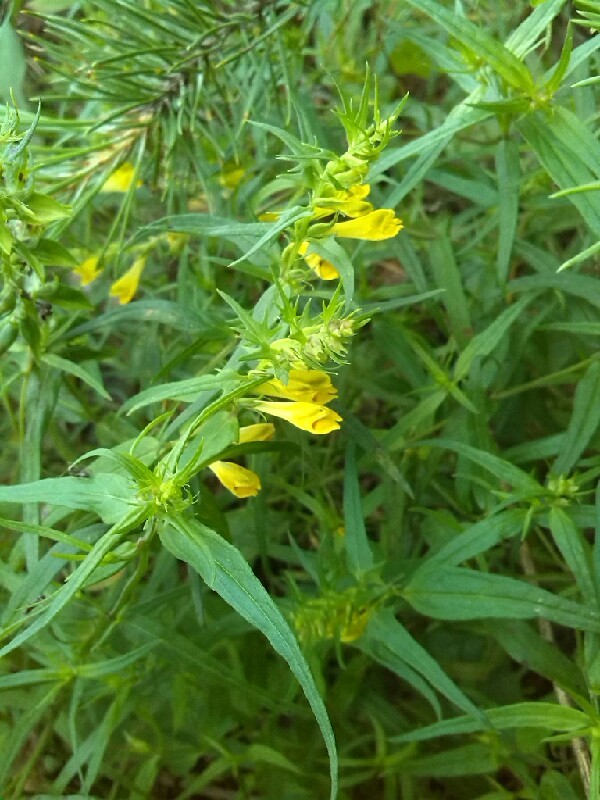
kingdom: Plantae
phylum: Tracheophyta
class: Magnoliopsida
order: Lamiales
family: Orobanchaceae
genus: Melampyrum
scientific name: Melampyrum pratense
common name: Common cow-wheat
